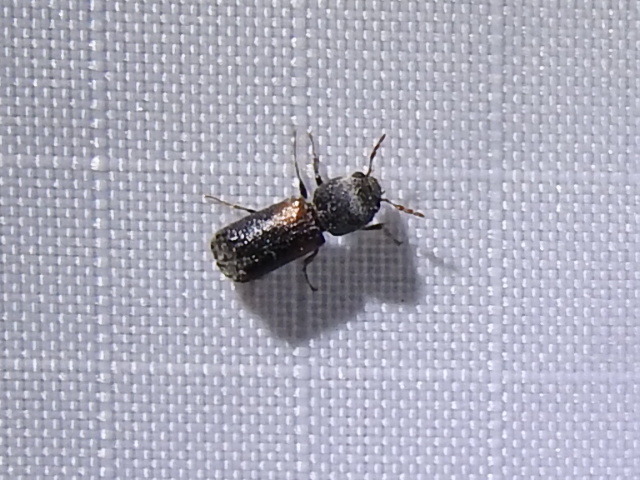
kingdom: Animalia
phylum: Arthropoda
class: Insecta
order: Coleoptera
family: Bostrichidae
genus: Xylobiops
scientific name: Xylobiops basilaris
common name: Red-shouldered bostrichid
